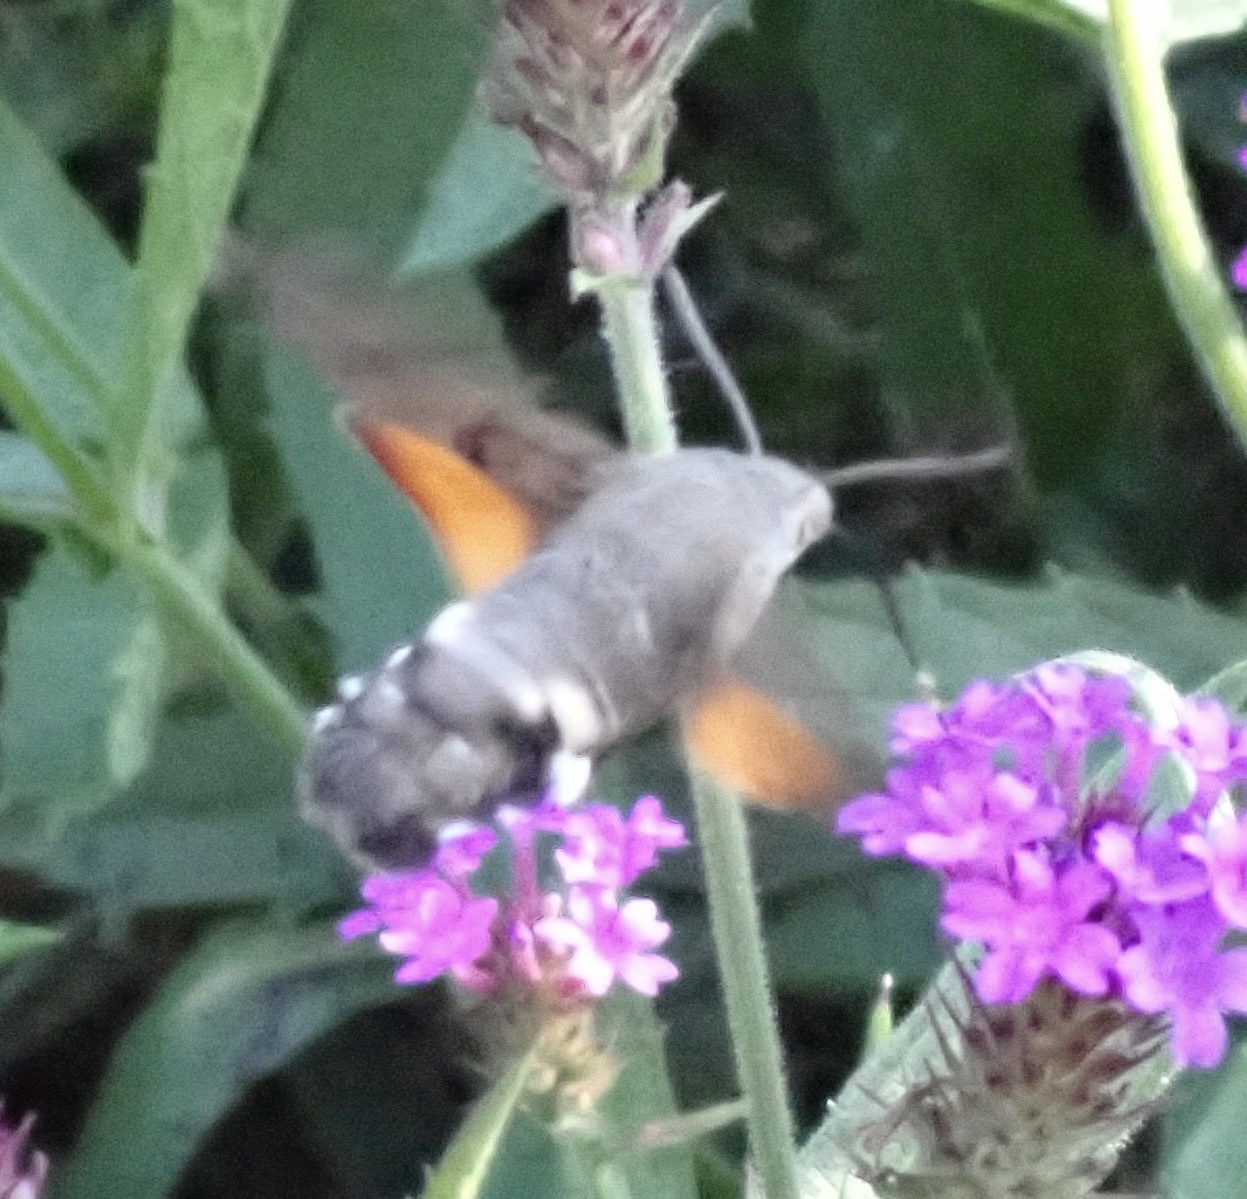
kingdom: Animalia
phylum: Arthropoda
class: Insecta
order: Lepidoptera
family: Sphingidae
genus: Macroglossum
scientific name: Macroglossum stellatarum
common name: Humming-bird hawk-moth
